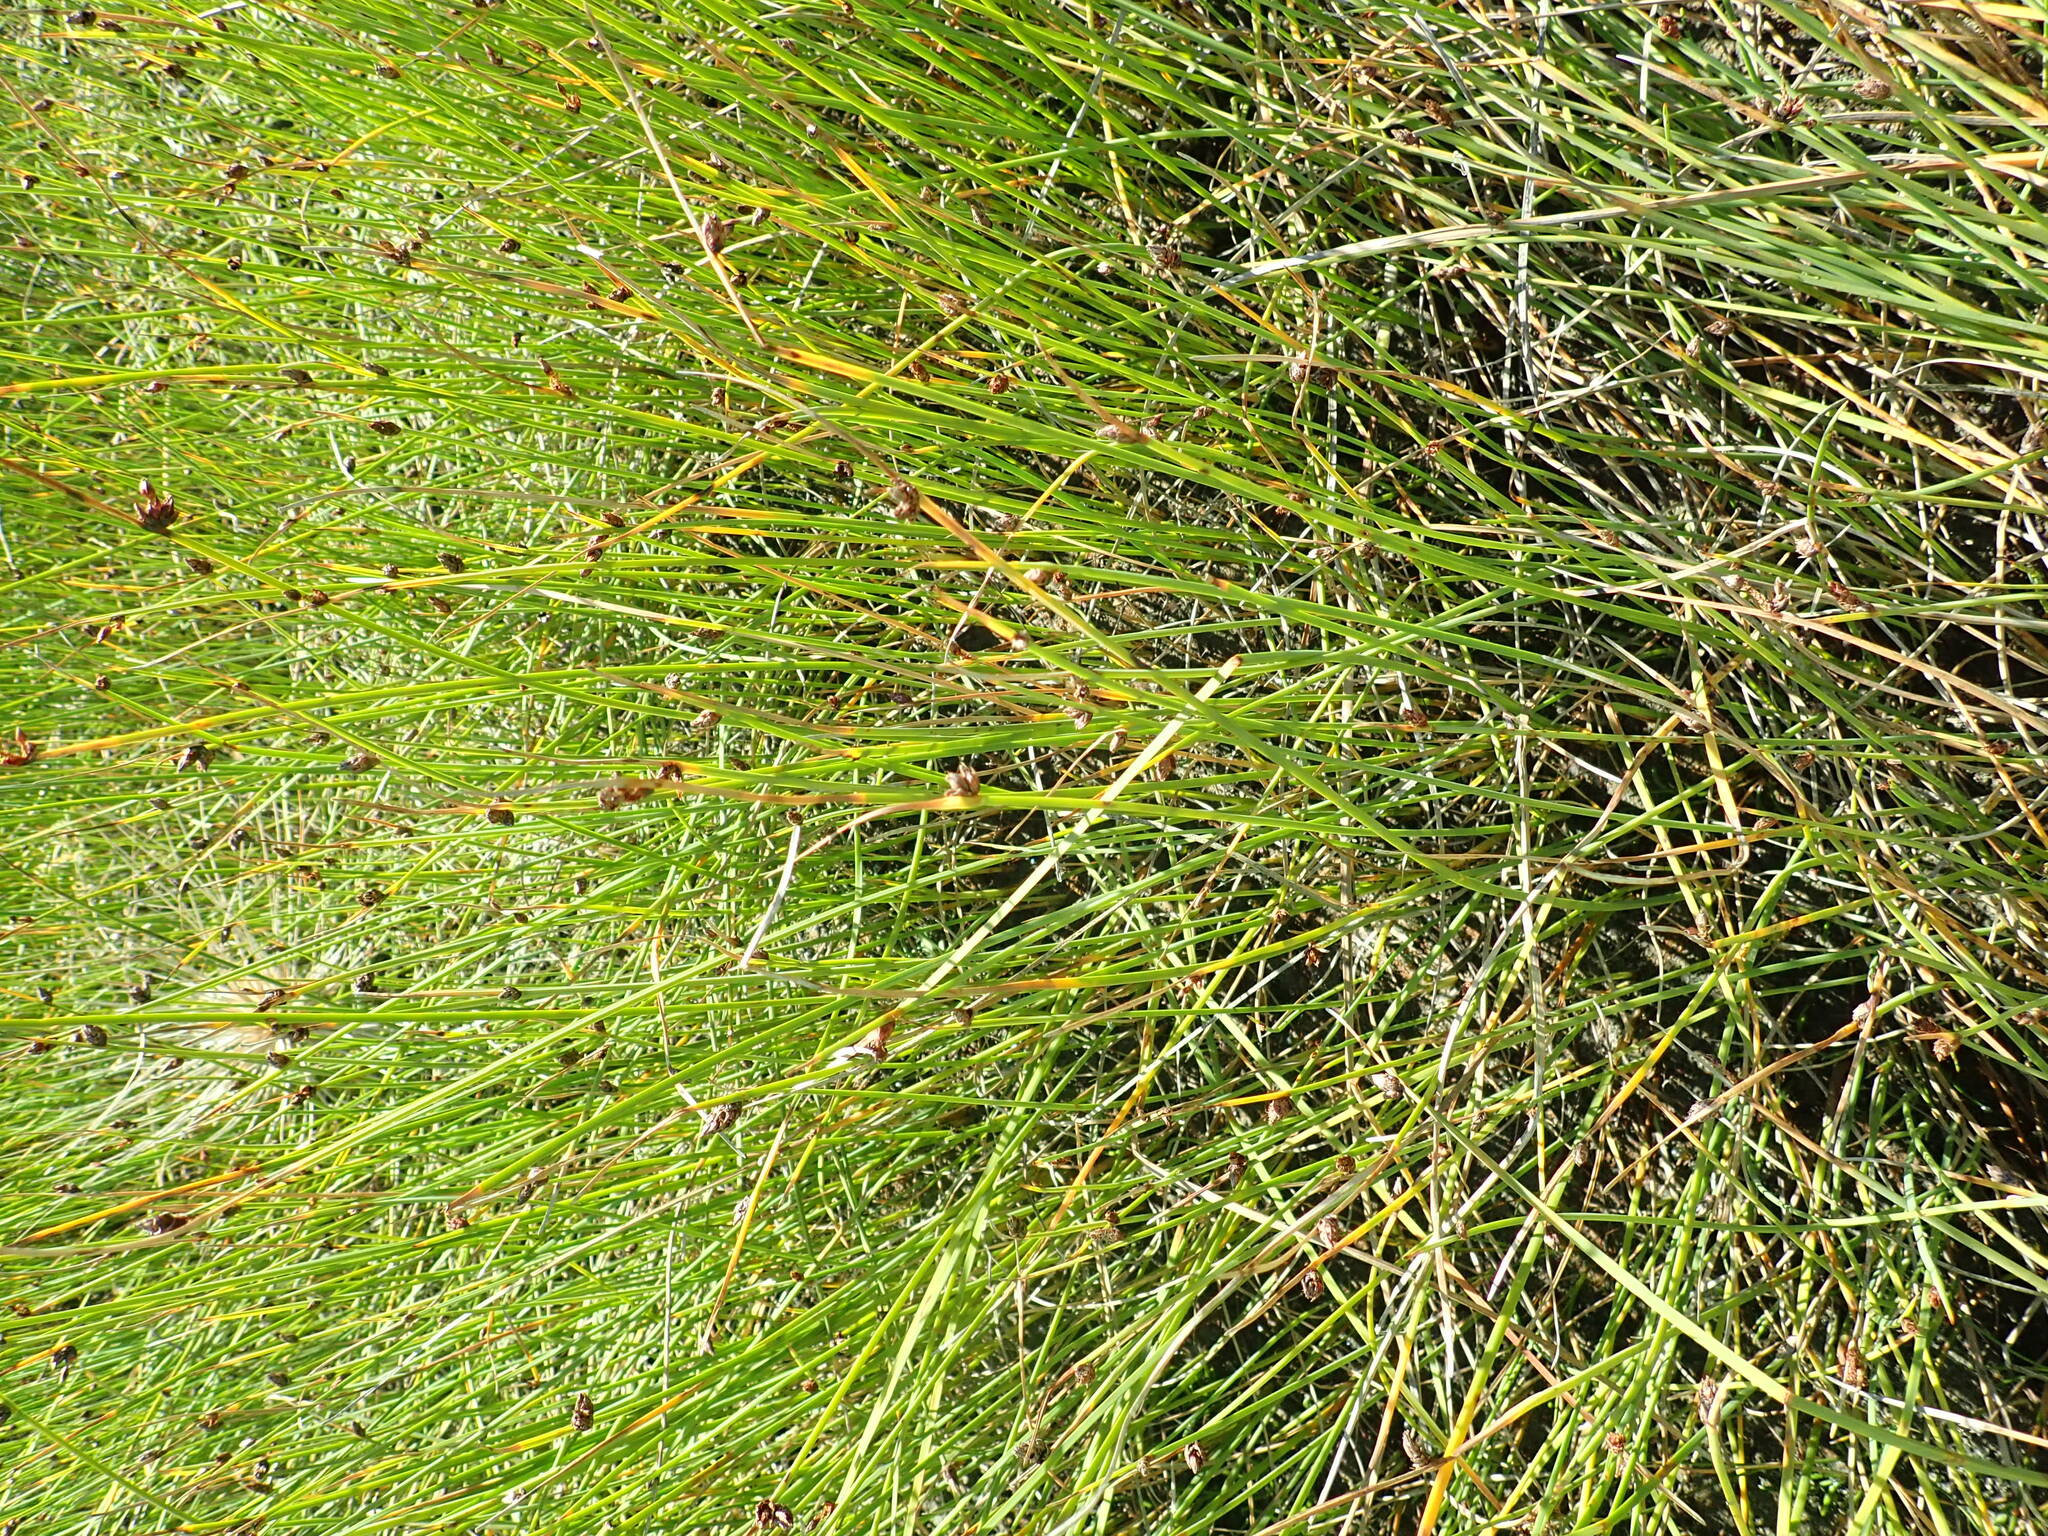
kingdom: Plantae
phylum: Tracheophyta
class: Liliopsida
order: Poales
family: Cyperaceae
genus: Schoenoplectus
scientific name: Schoenoplectus pungens
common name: Sharp club-rush
